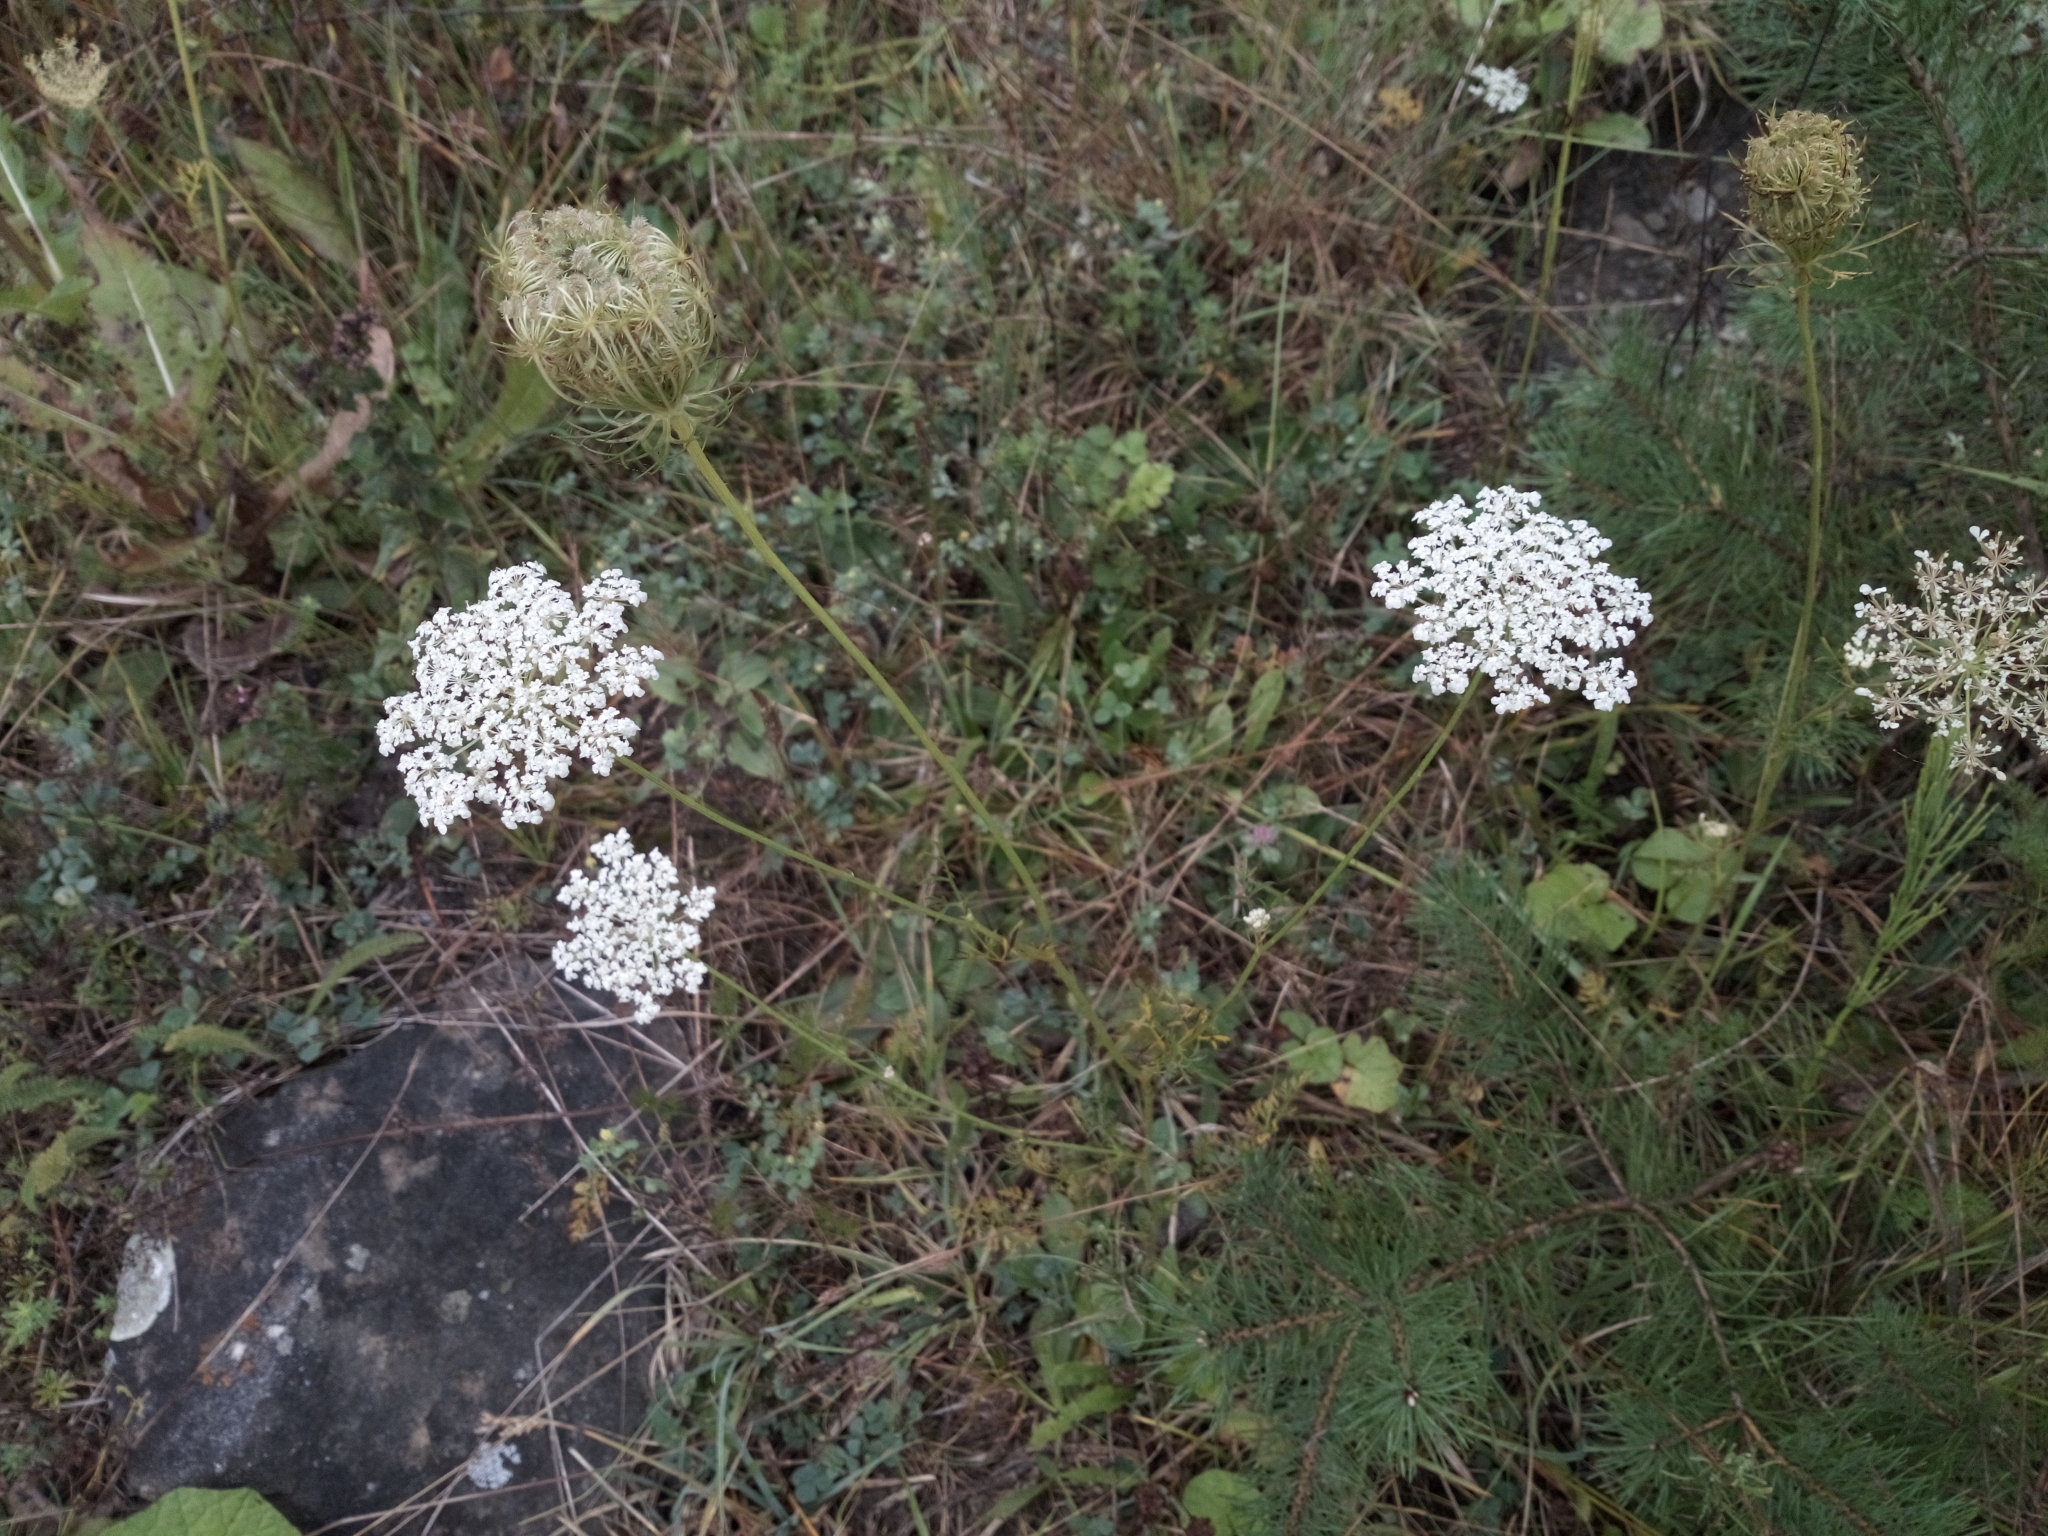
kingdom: Plantae
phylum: Tracheophyta
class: Magnoliopsida
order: Apiales
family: Apiaceae
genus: Daucus
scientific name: Daucus carota
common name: Wild carrot
